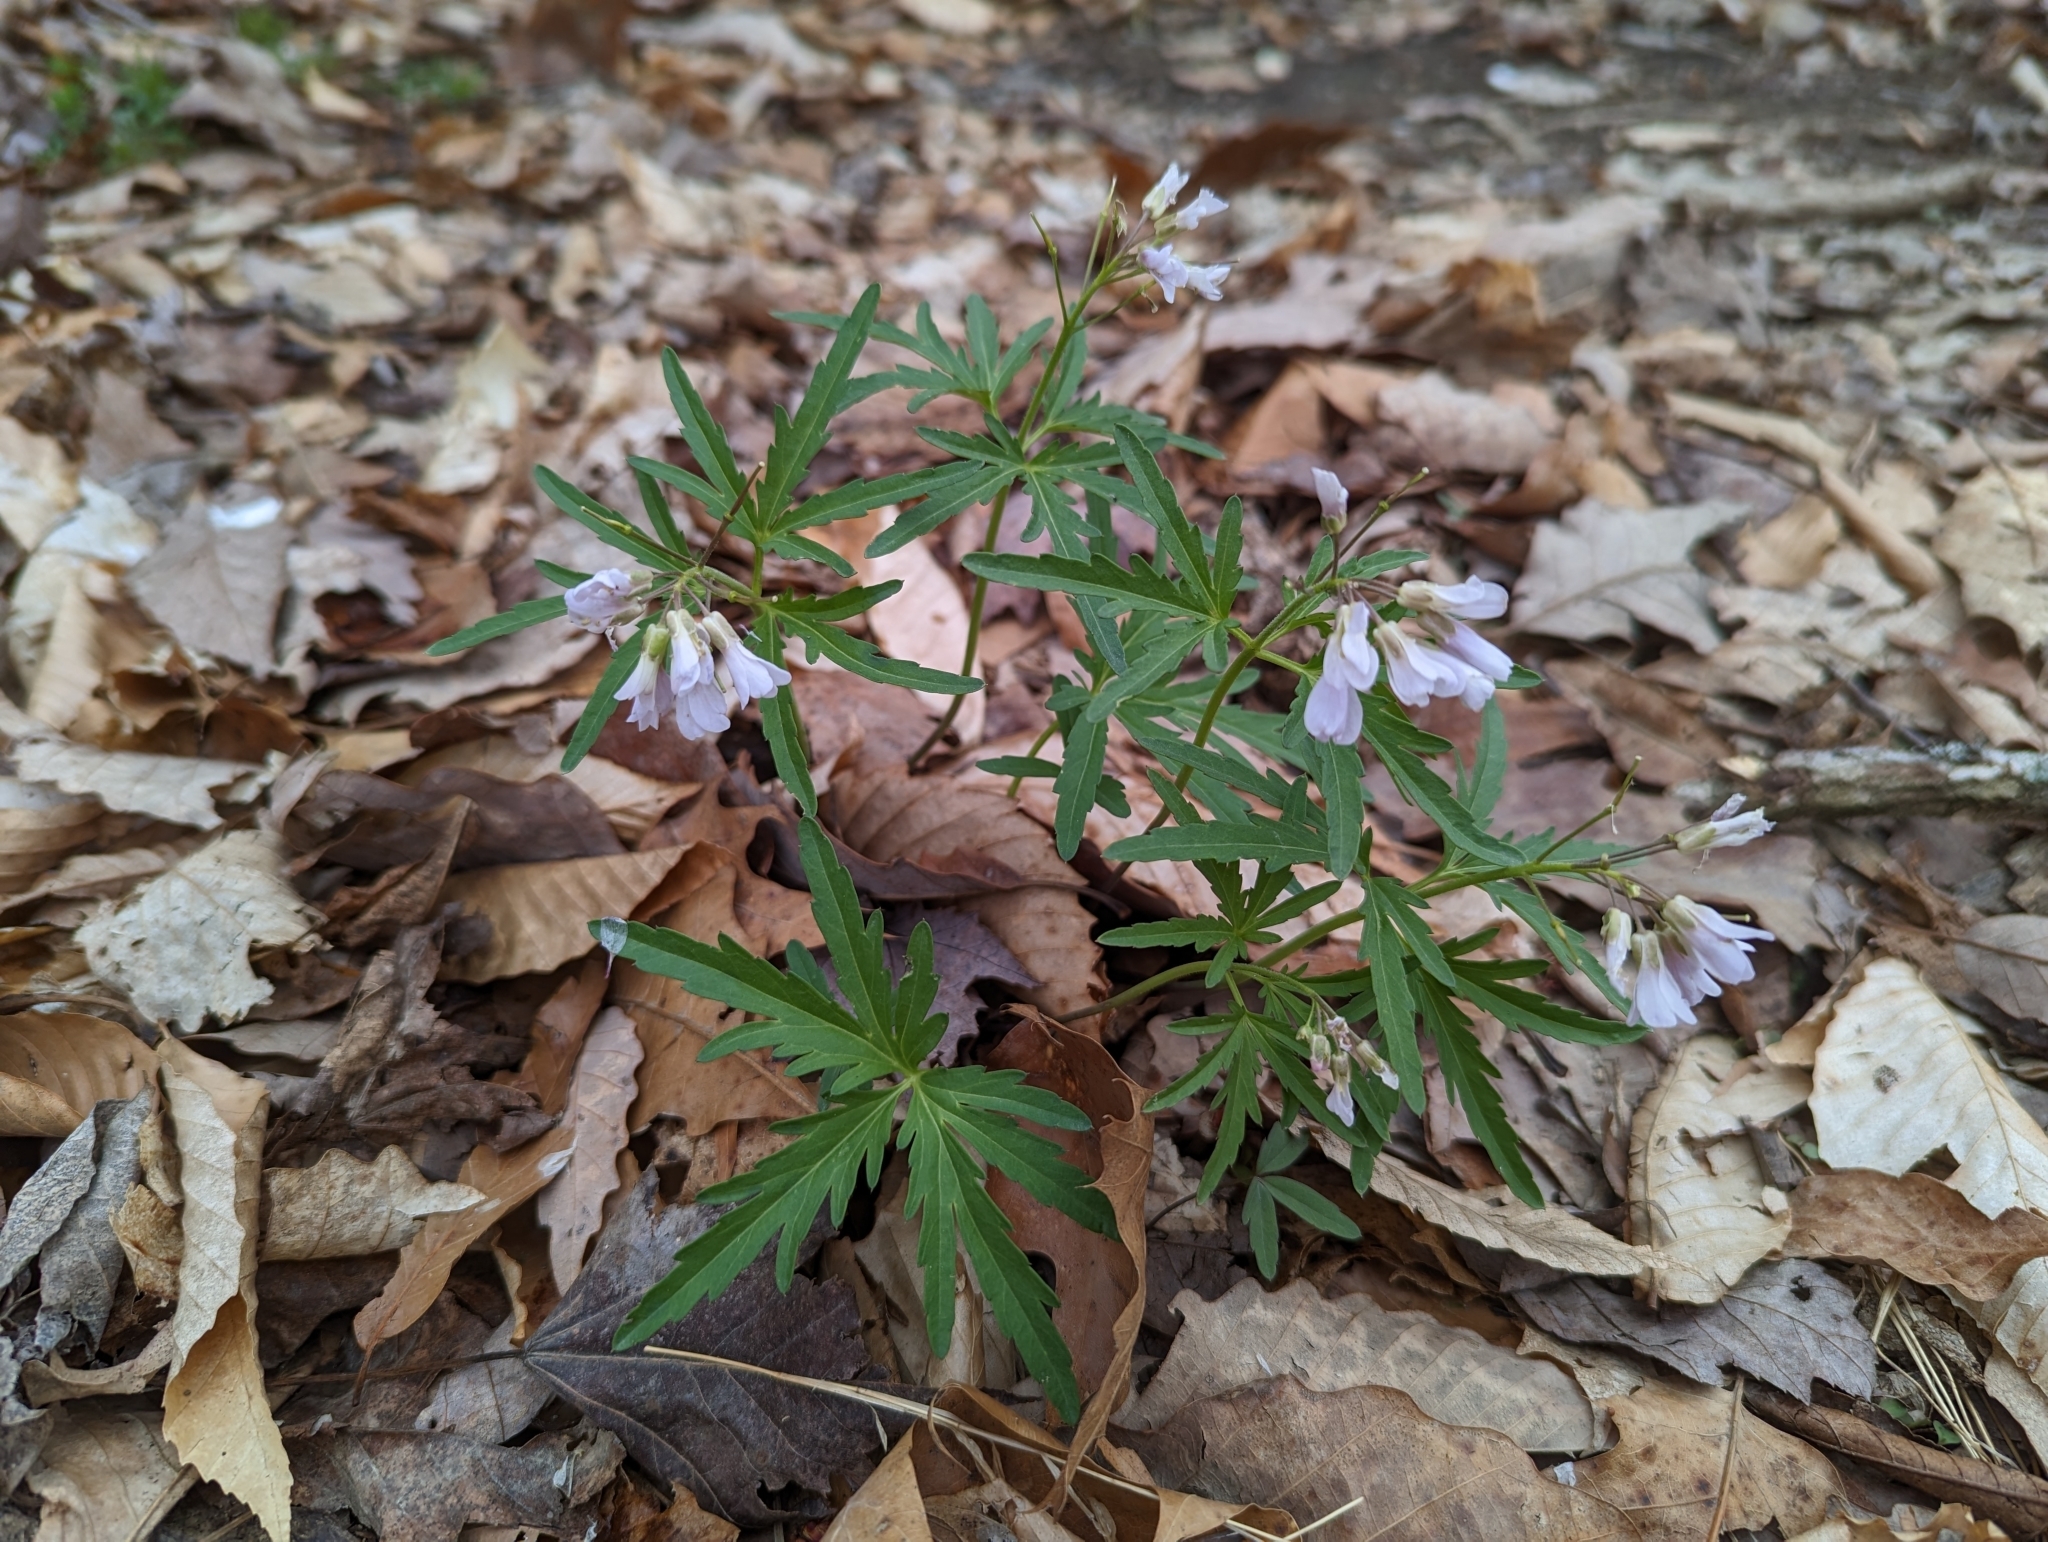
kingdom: Plantae
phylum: Tracheophyta
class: Magnoliopsida
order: Brassicales
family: Brassicaceae
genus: Cardamine
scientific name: Cardamine concatenata
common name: Cut-leaf toothcup
